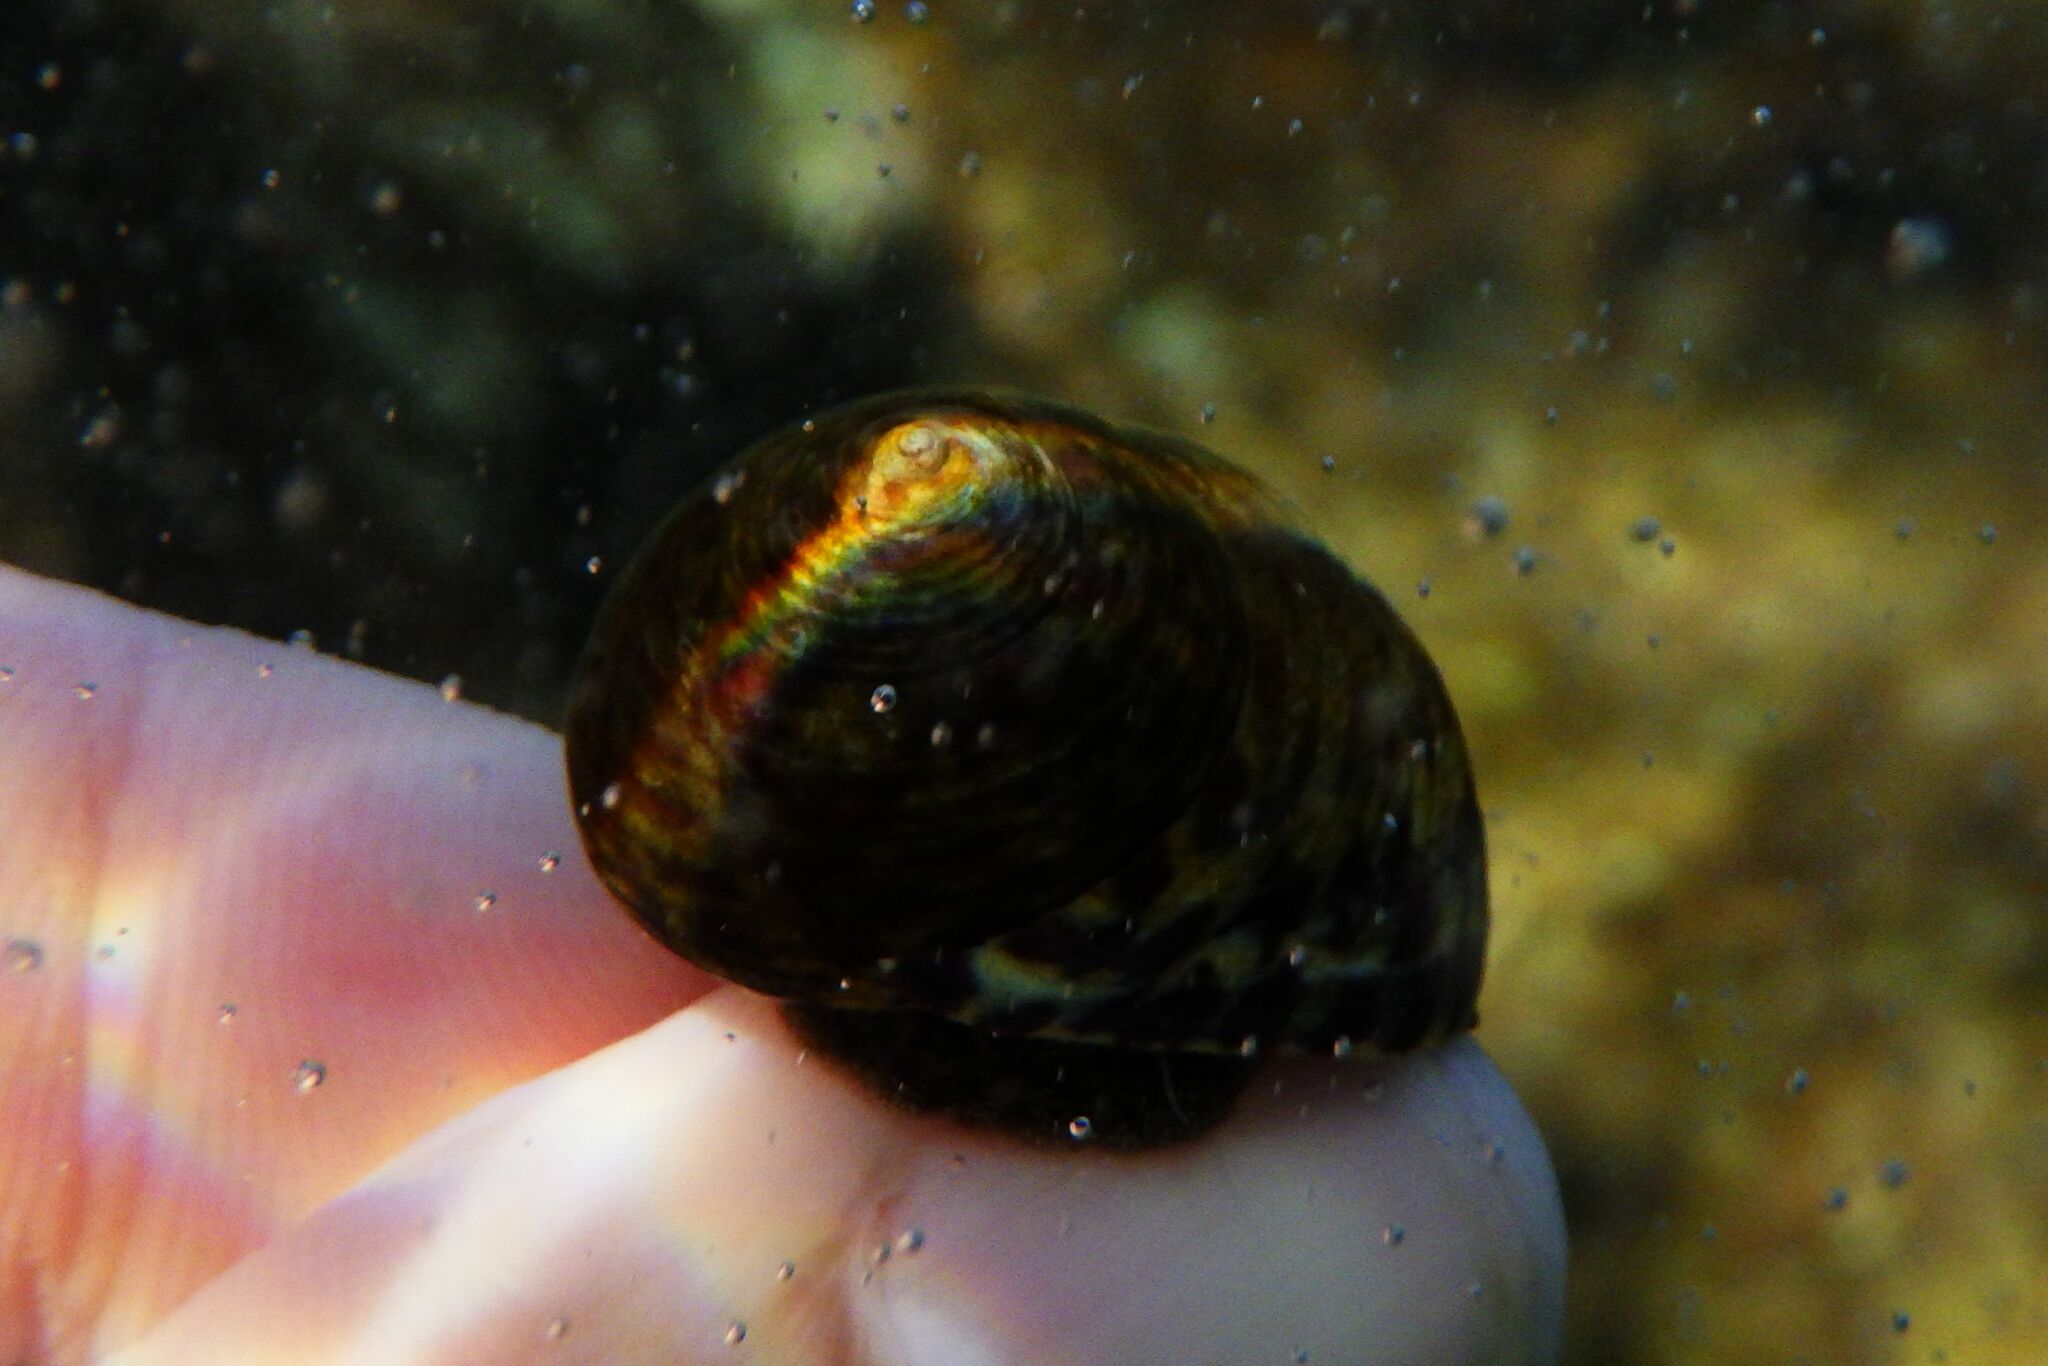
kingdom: Animalia
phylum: Mollusca
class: Gastropoda
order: Trochida
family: Trochidae
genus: Phorcus
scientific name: Phorcus turbinatus
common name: Turbinate monodont
